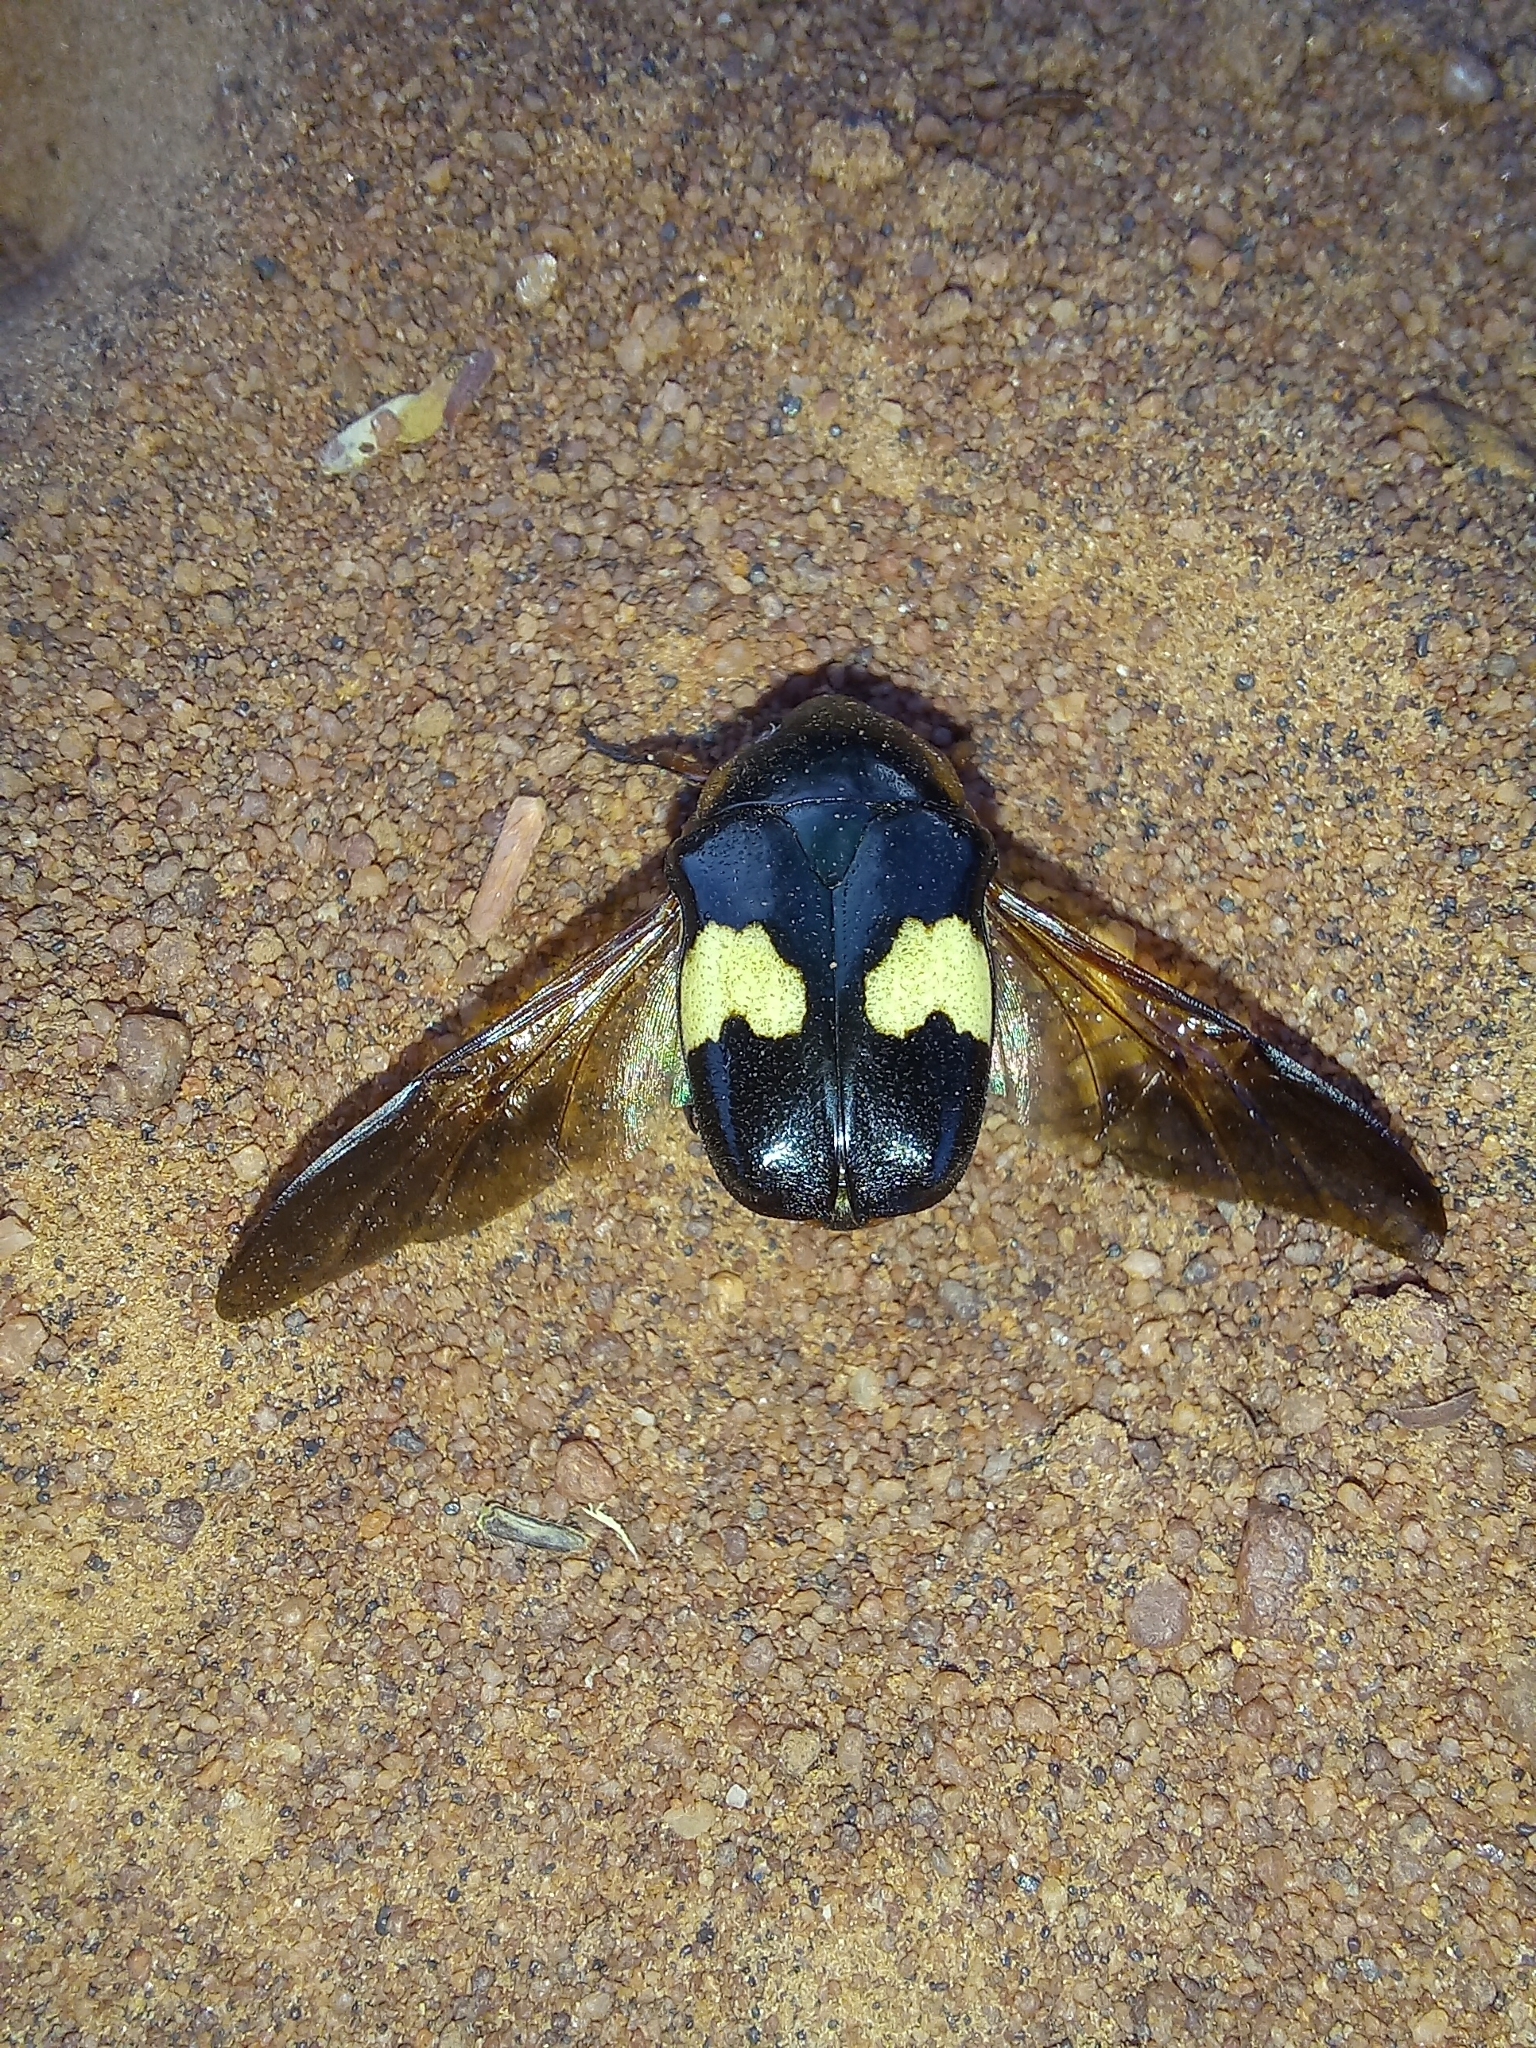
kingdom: Animalia
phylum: Arthropoda
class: Insecta
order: Coleoptera
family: Scarabaeidae
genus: Pedinorrhina
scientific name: Pedinorrhina
